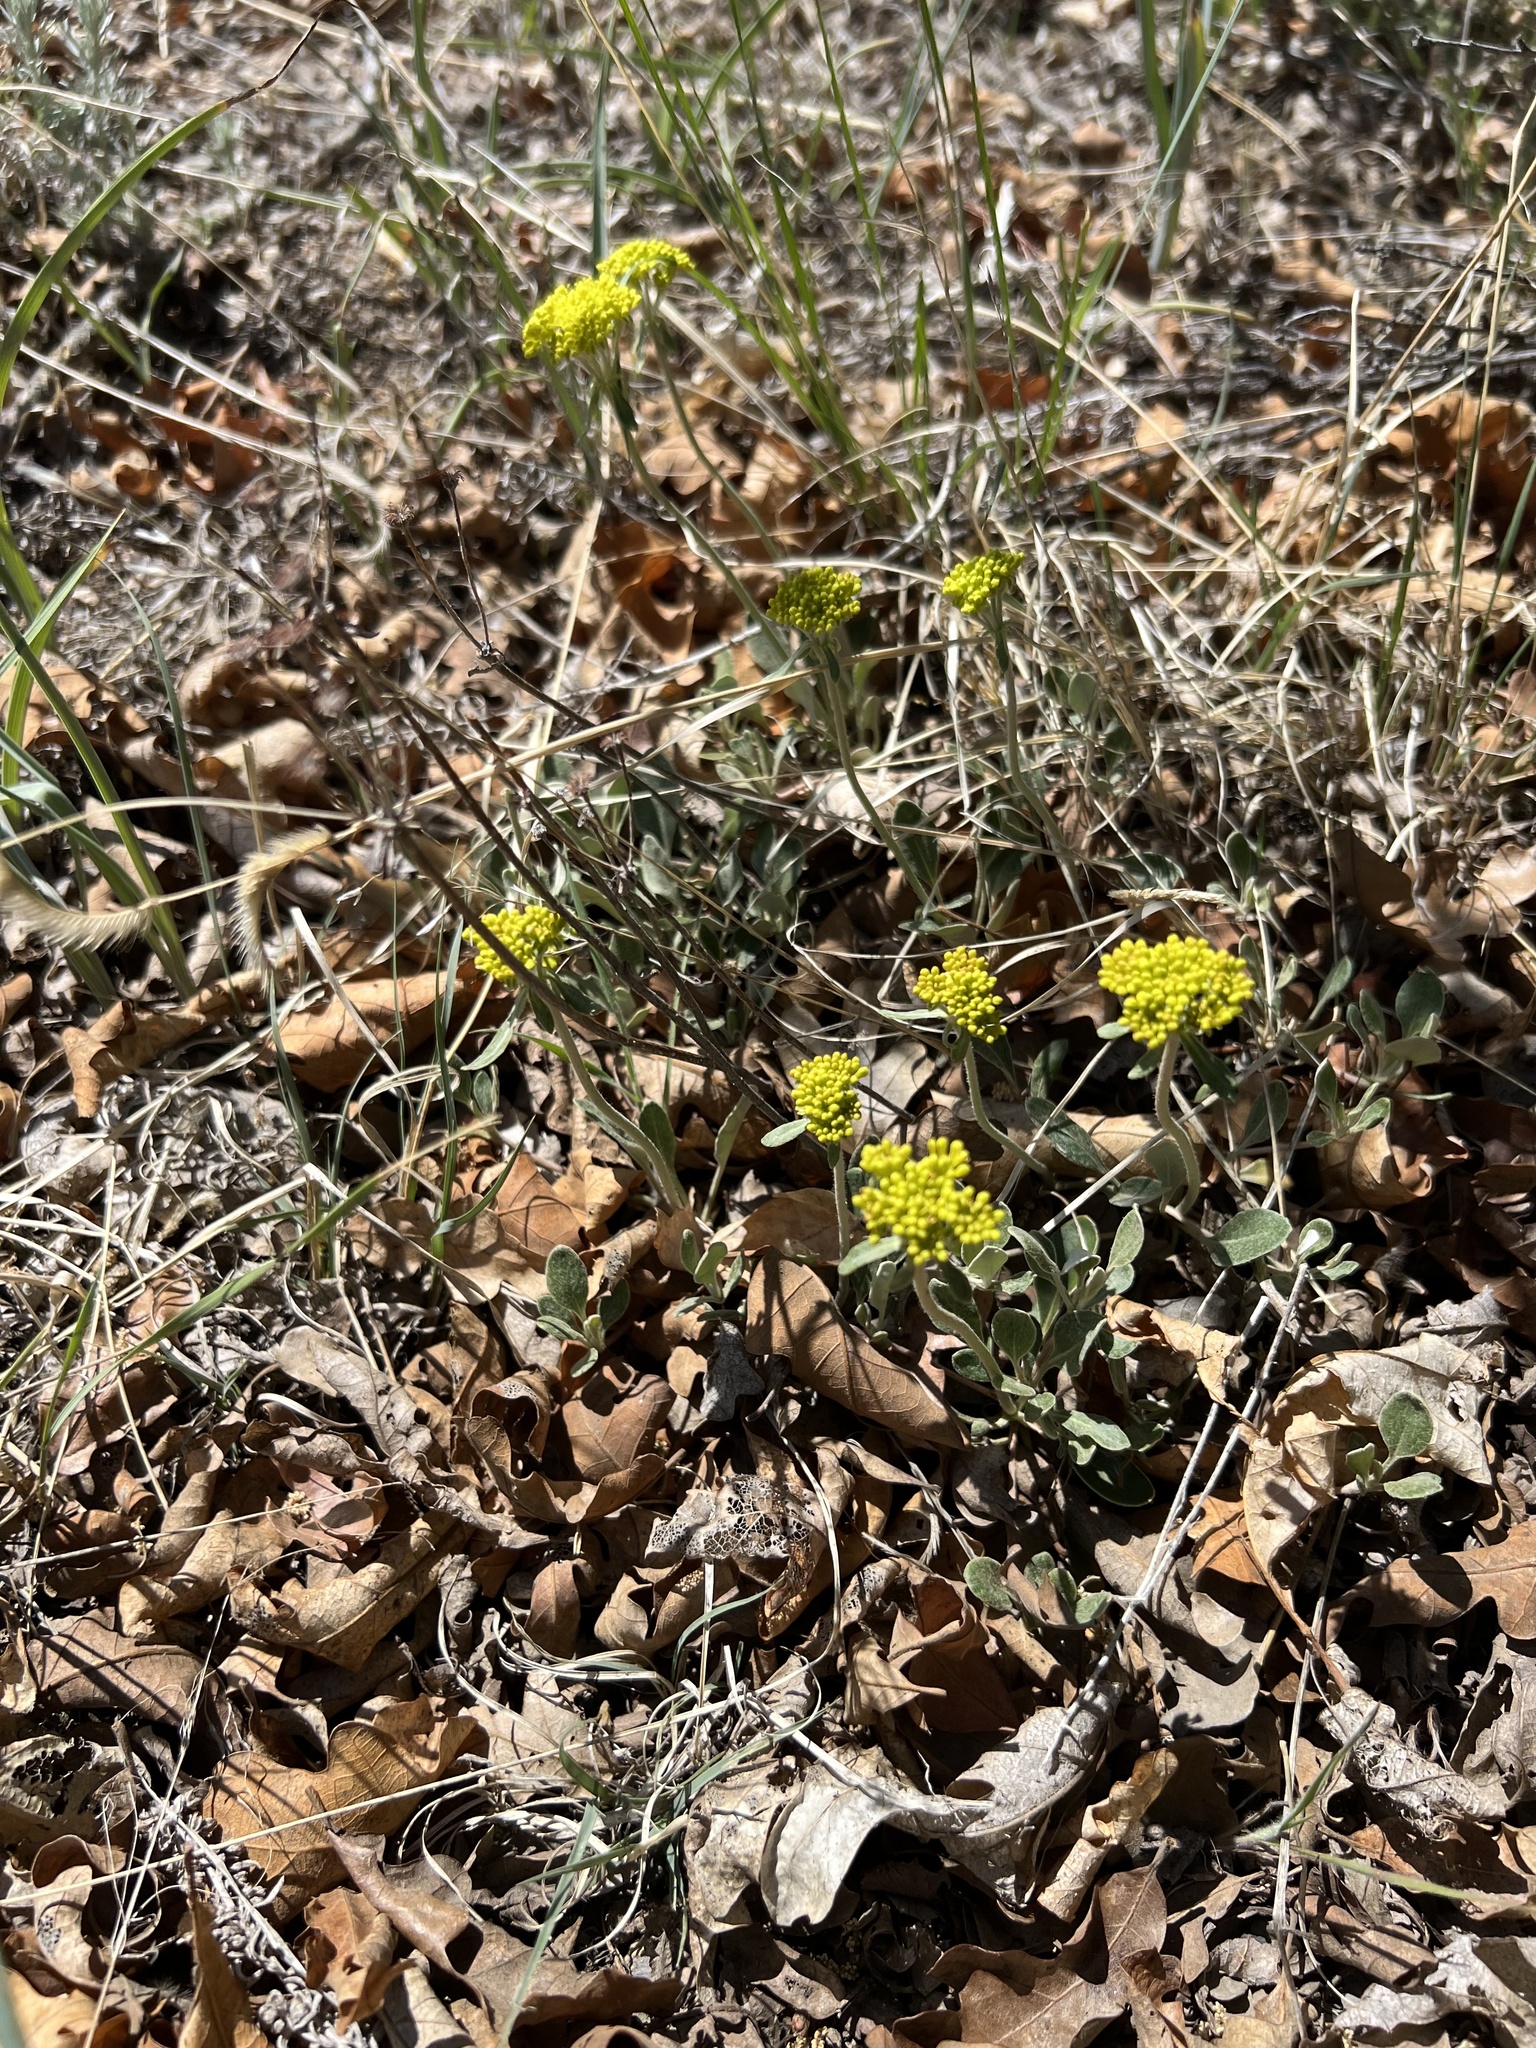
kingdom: Plantae
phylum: Tracheophyta
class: Magnoliopsida
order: Caryophyllales
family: Polygonaceae
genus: Eriogonum
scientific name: Eriogonum umbellatum
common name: Sulfur-buckwheat
